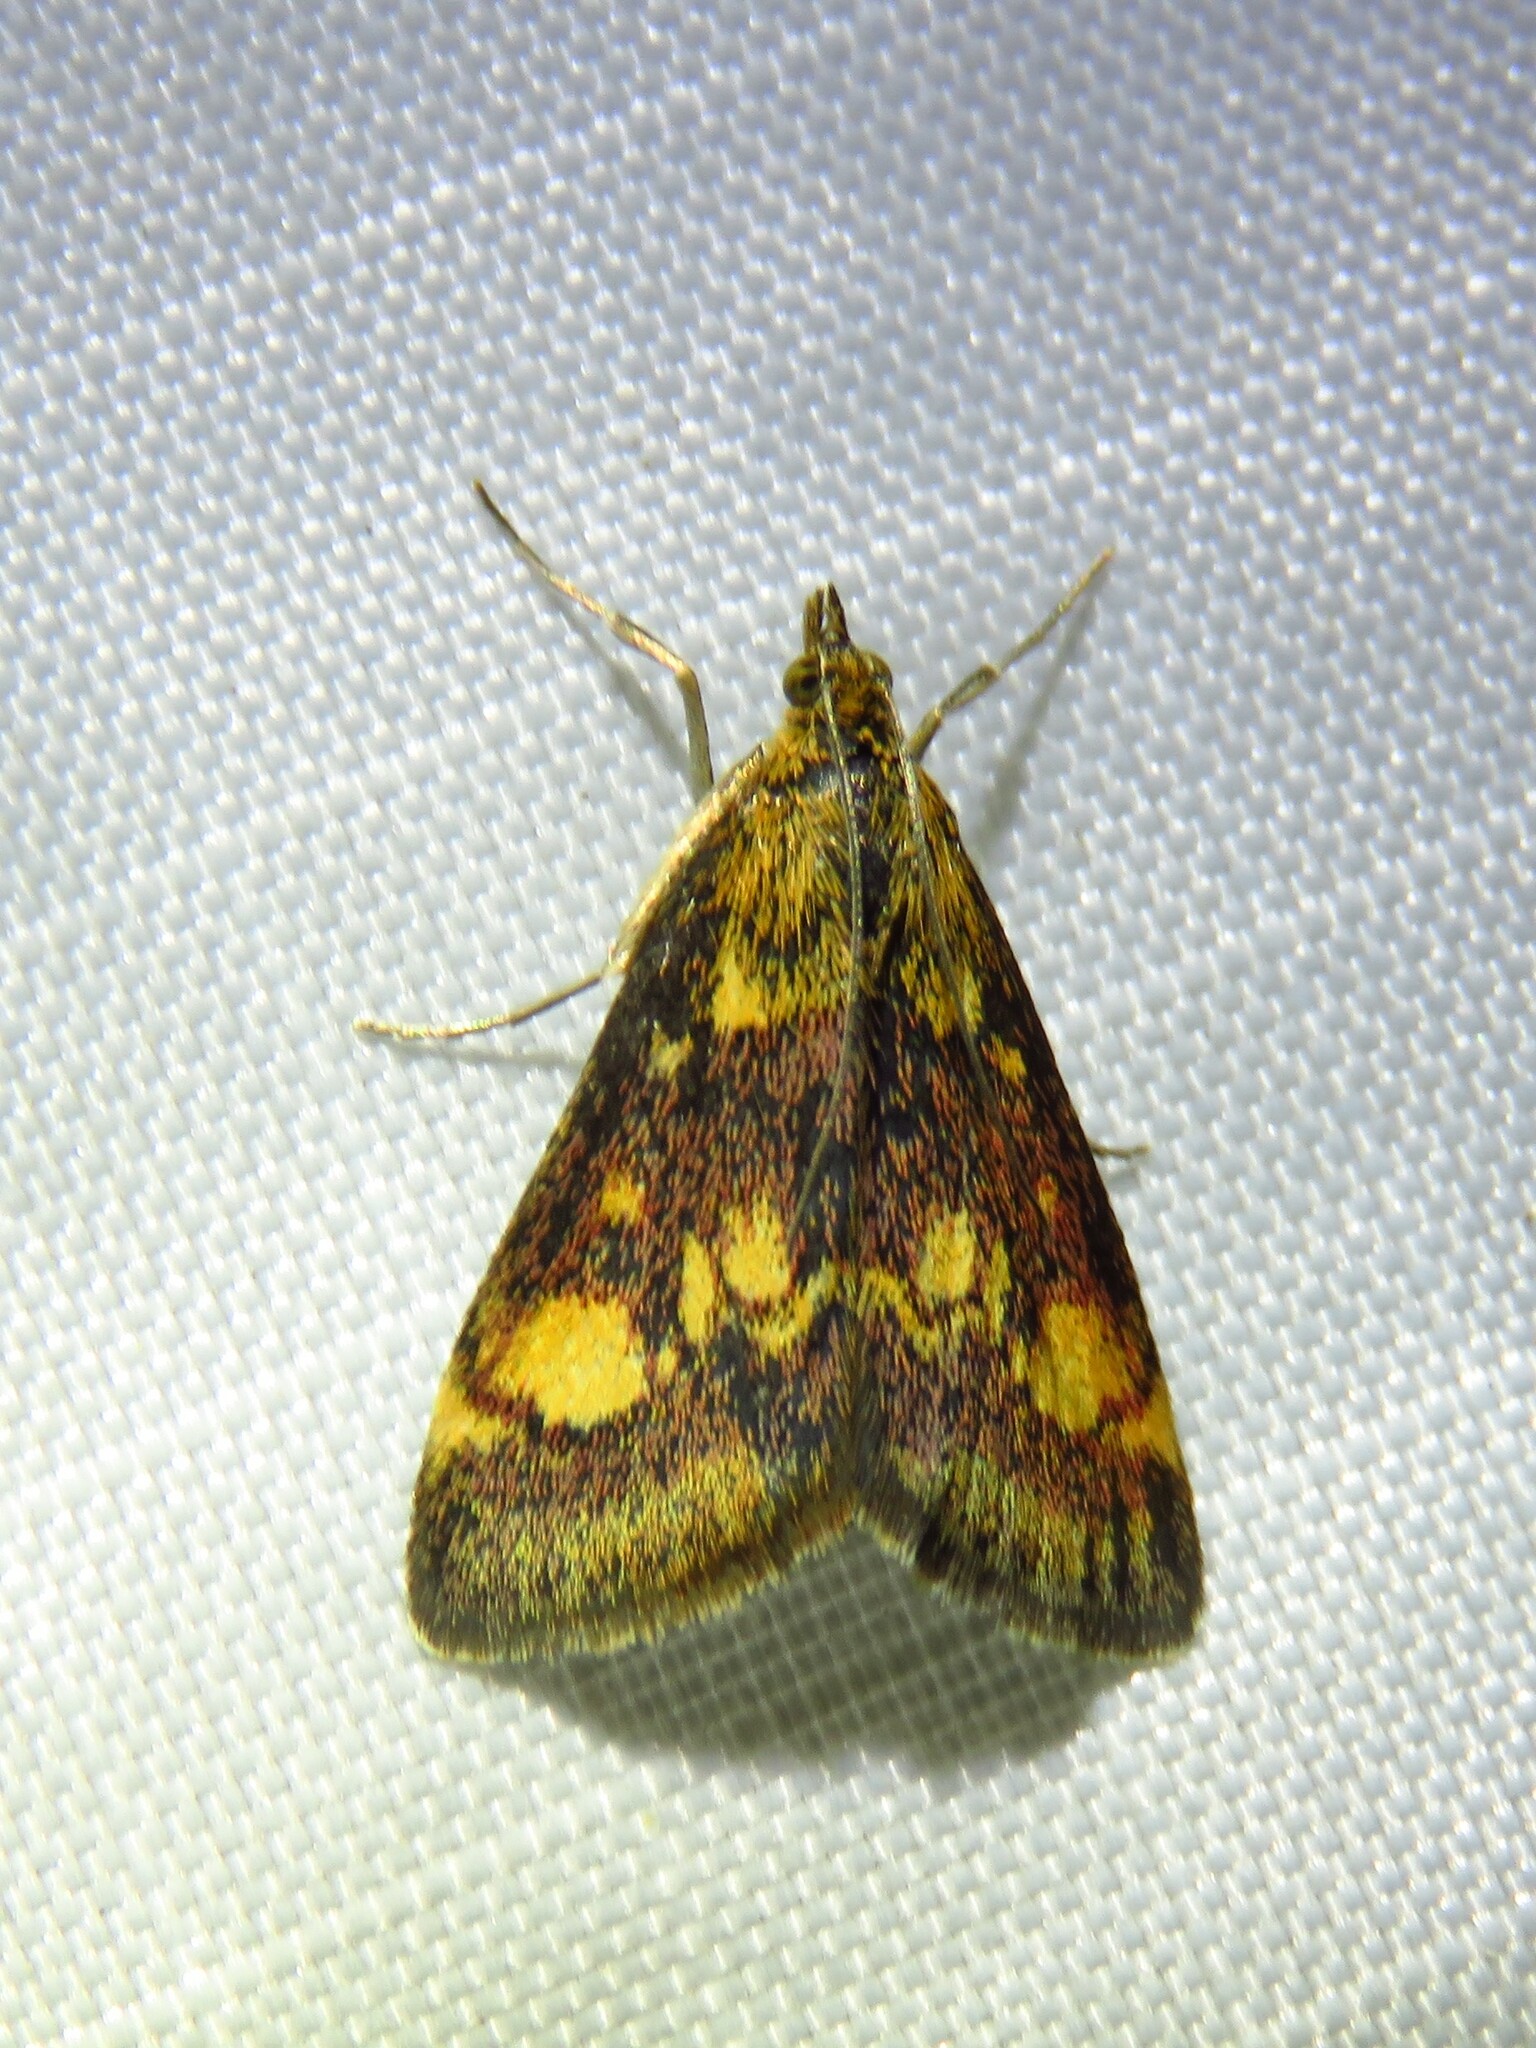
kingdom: Animalia
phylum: Arthropoda
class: Insecta
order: Lepidoptera
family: Crambidae
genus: Pyrausta
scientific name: Pyrausta aurata
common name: Small purple & gold
